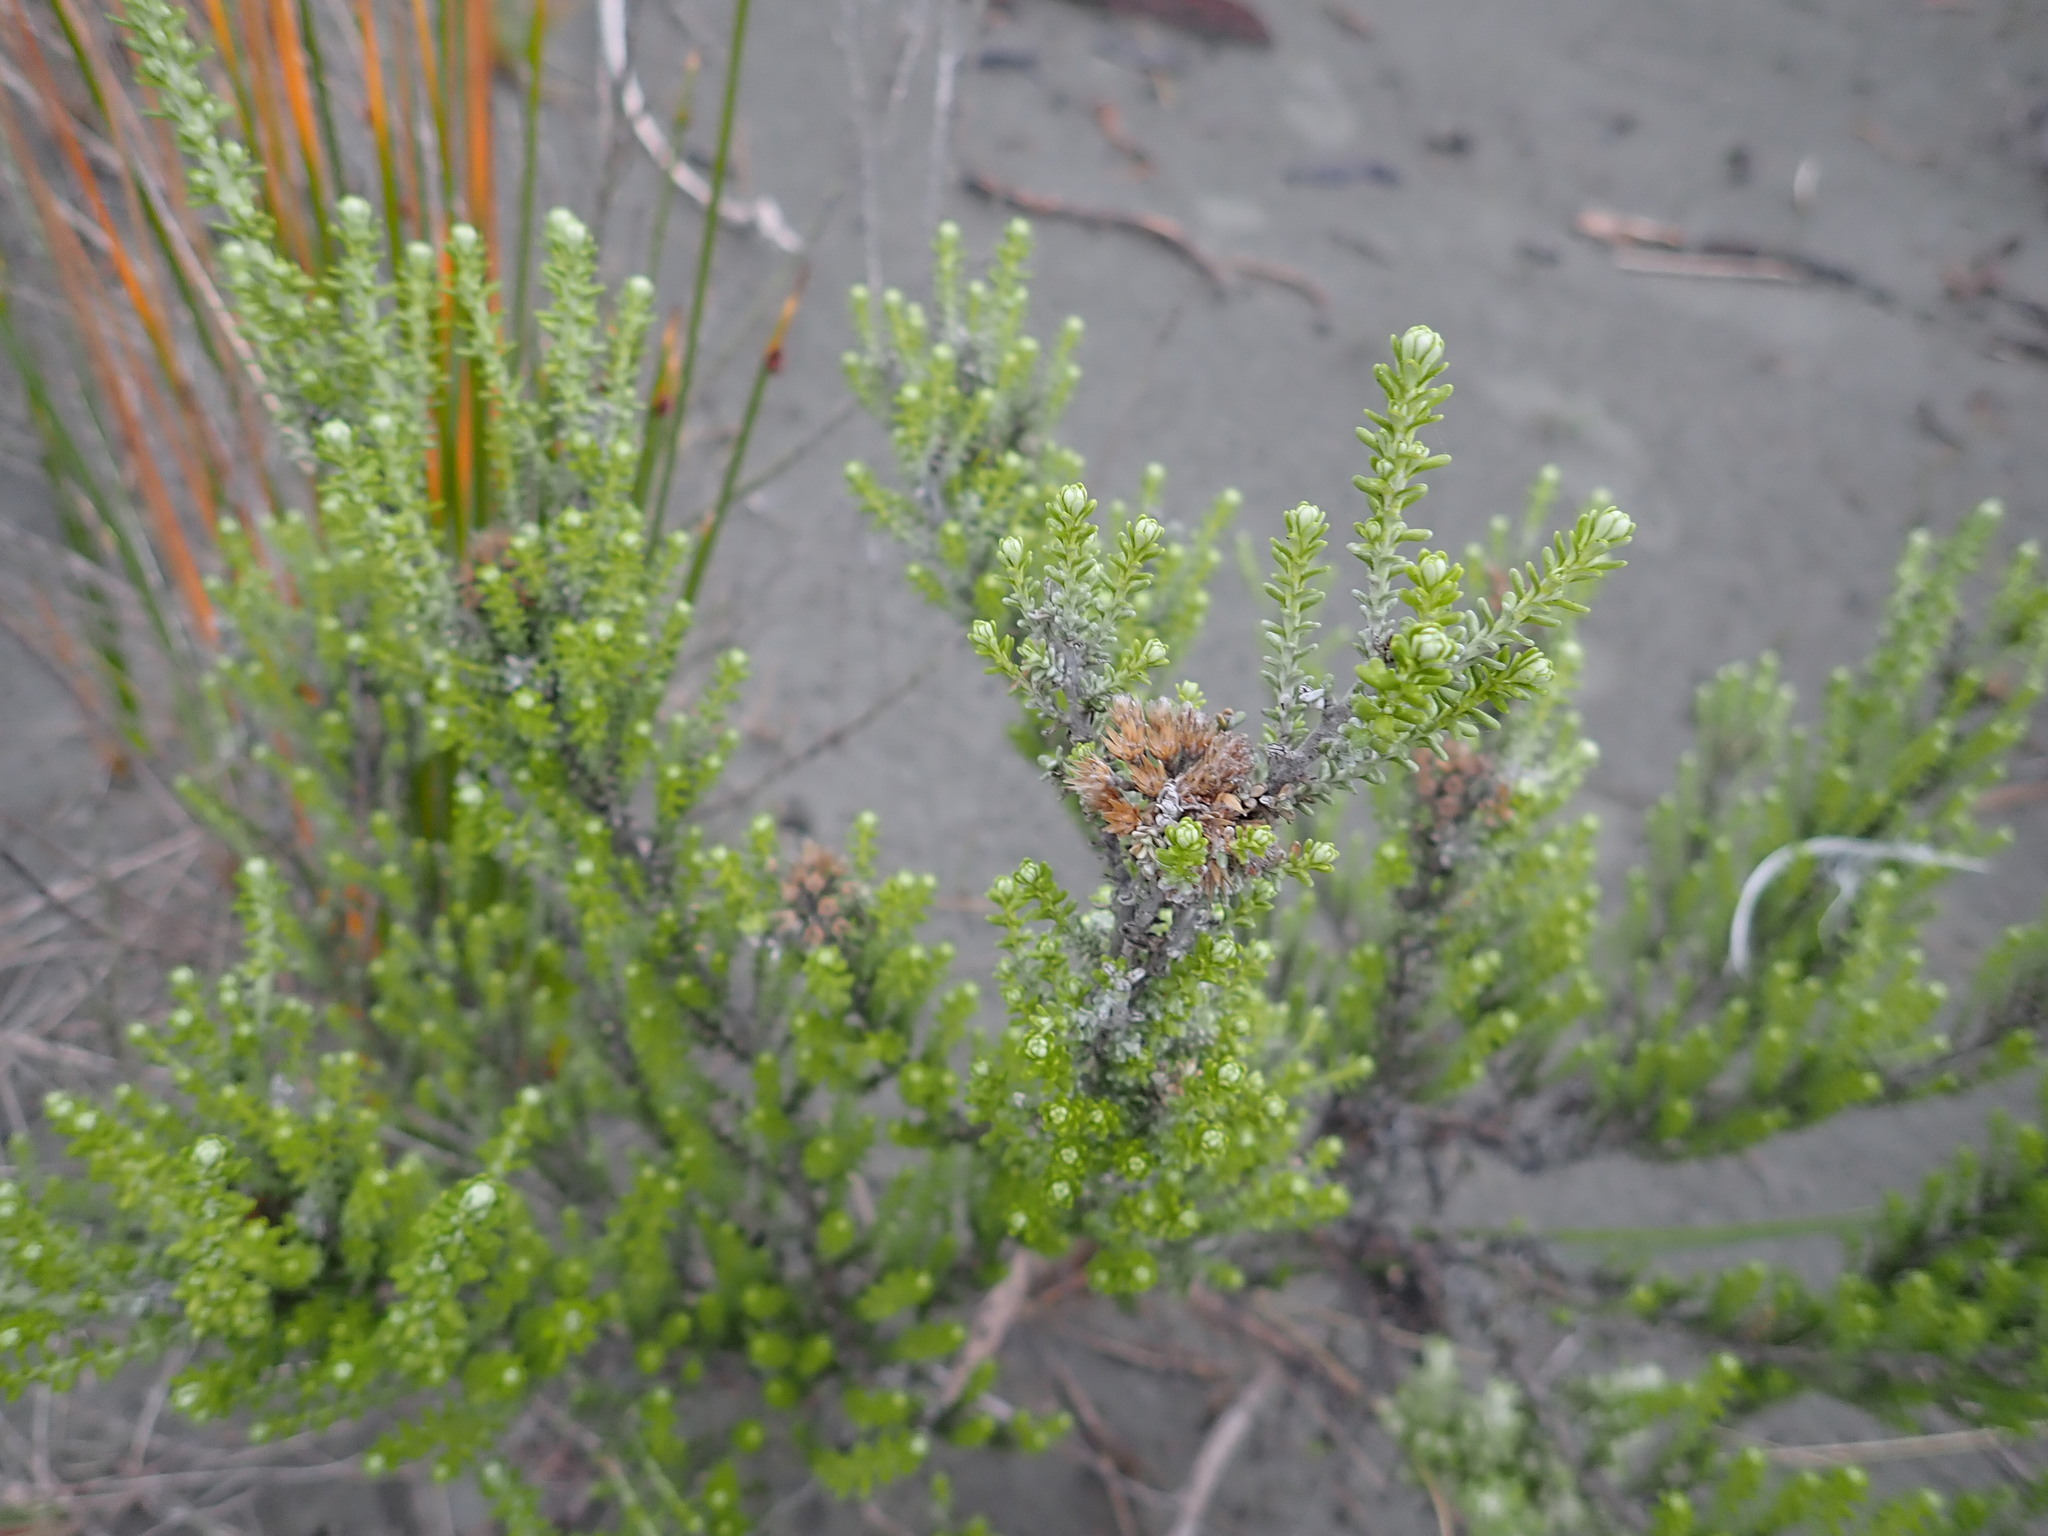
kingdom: Plantae
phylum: Tracheophyta
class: Magnoliopsida
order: Asterales
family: Asteraceae
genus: Ozothamnus
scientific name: Ozothamnus leptophyllus
